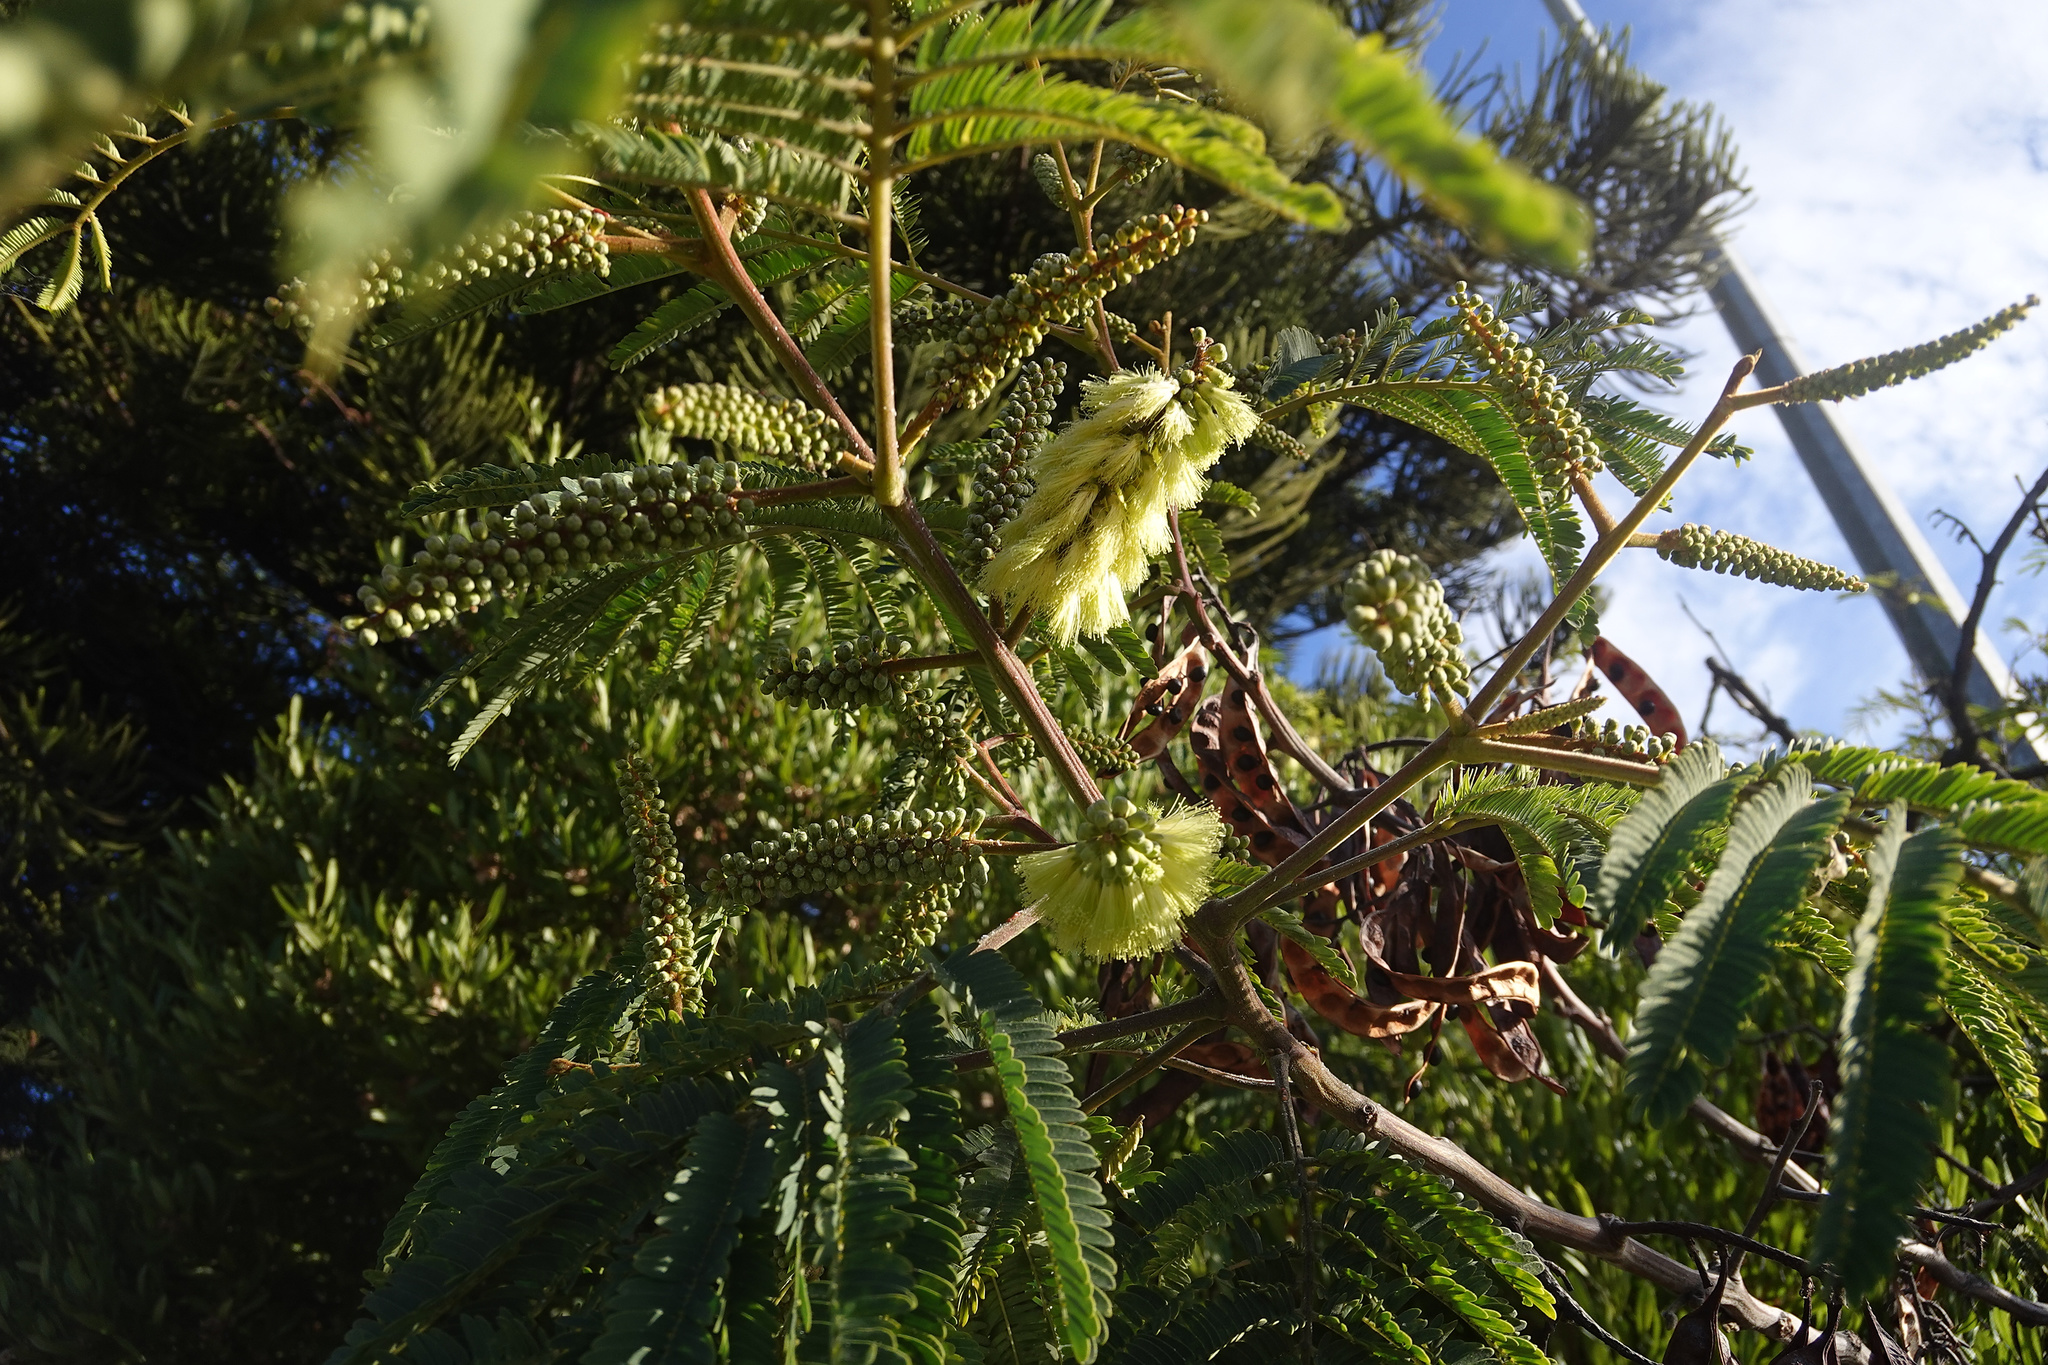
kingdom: Plantae
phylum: Tracheophyta
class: Magnoliopsida
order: Fabales
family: Fabaceae
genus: Paraserianthes
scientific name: Paraserianthes lophantha
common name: Plume albizia
